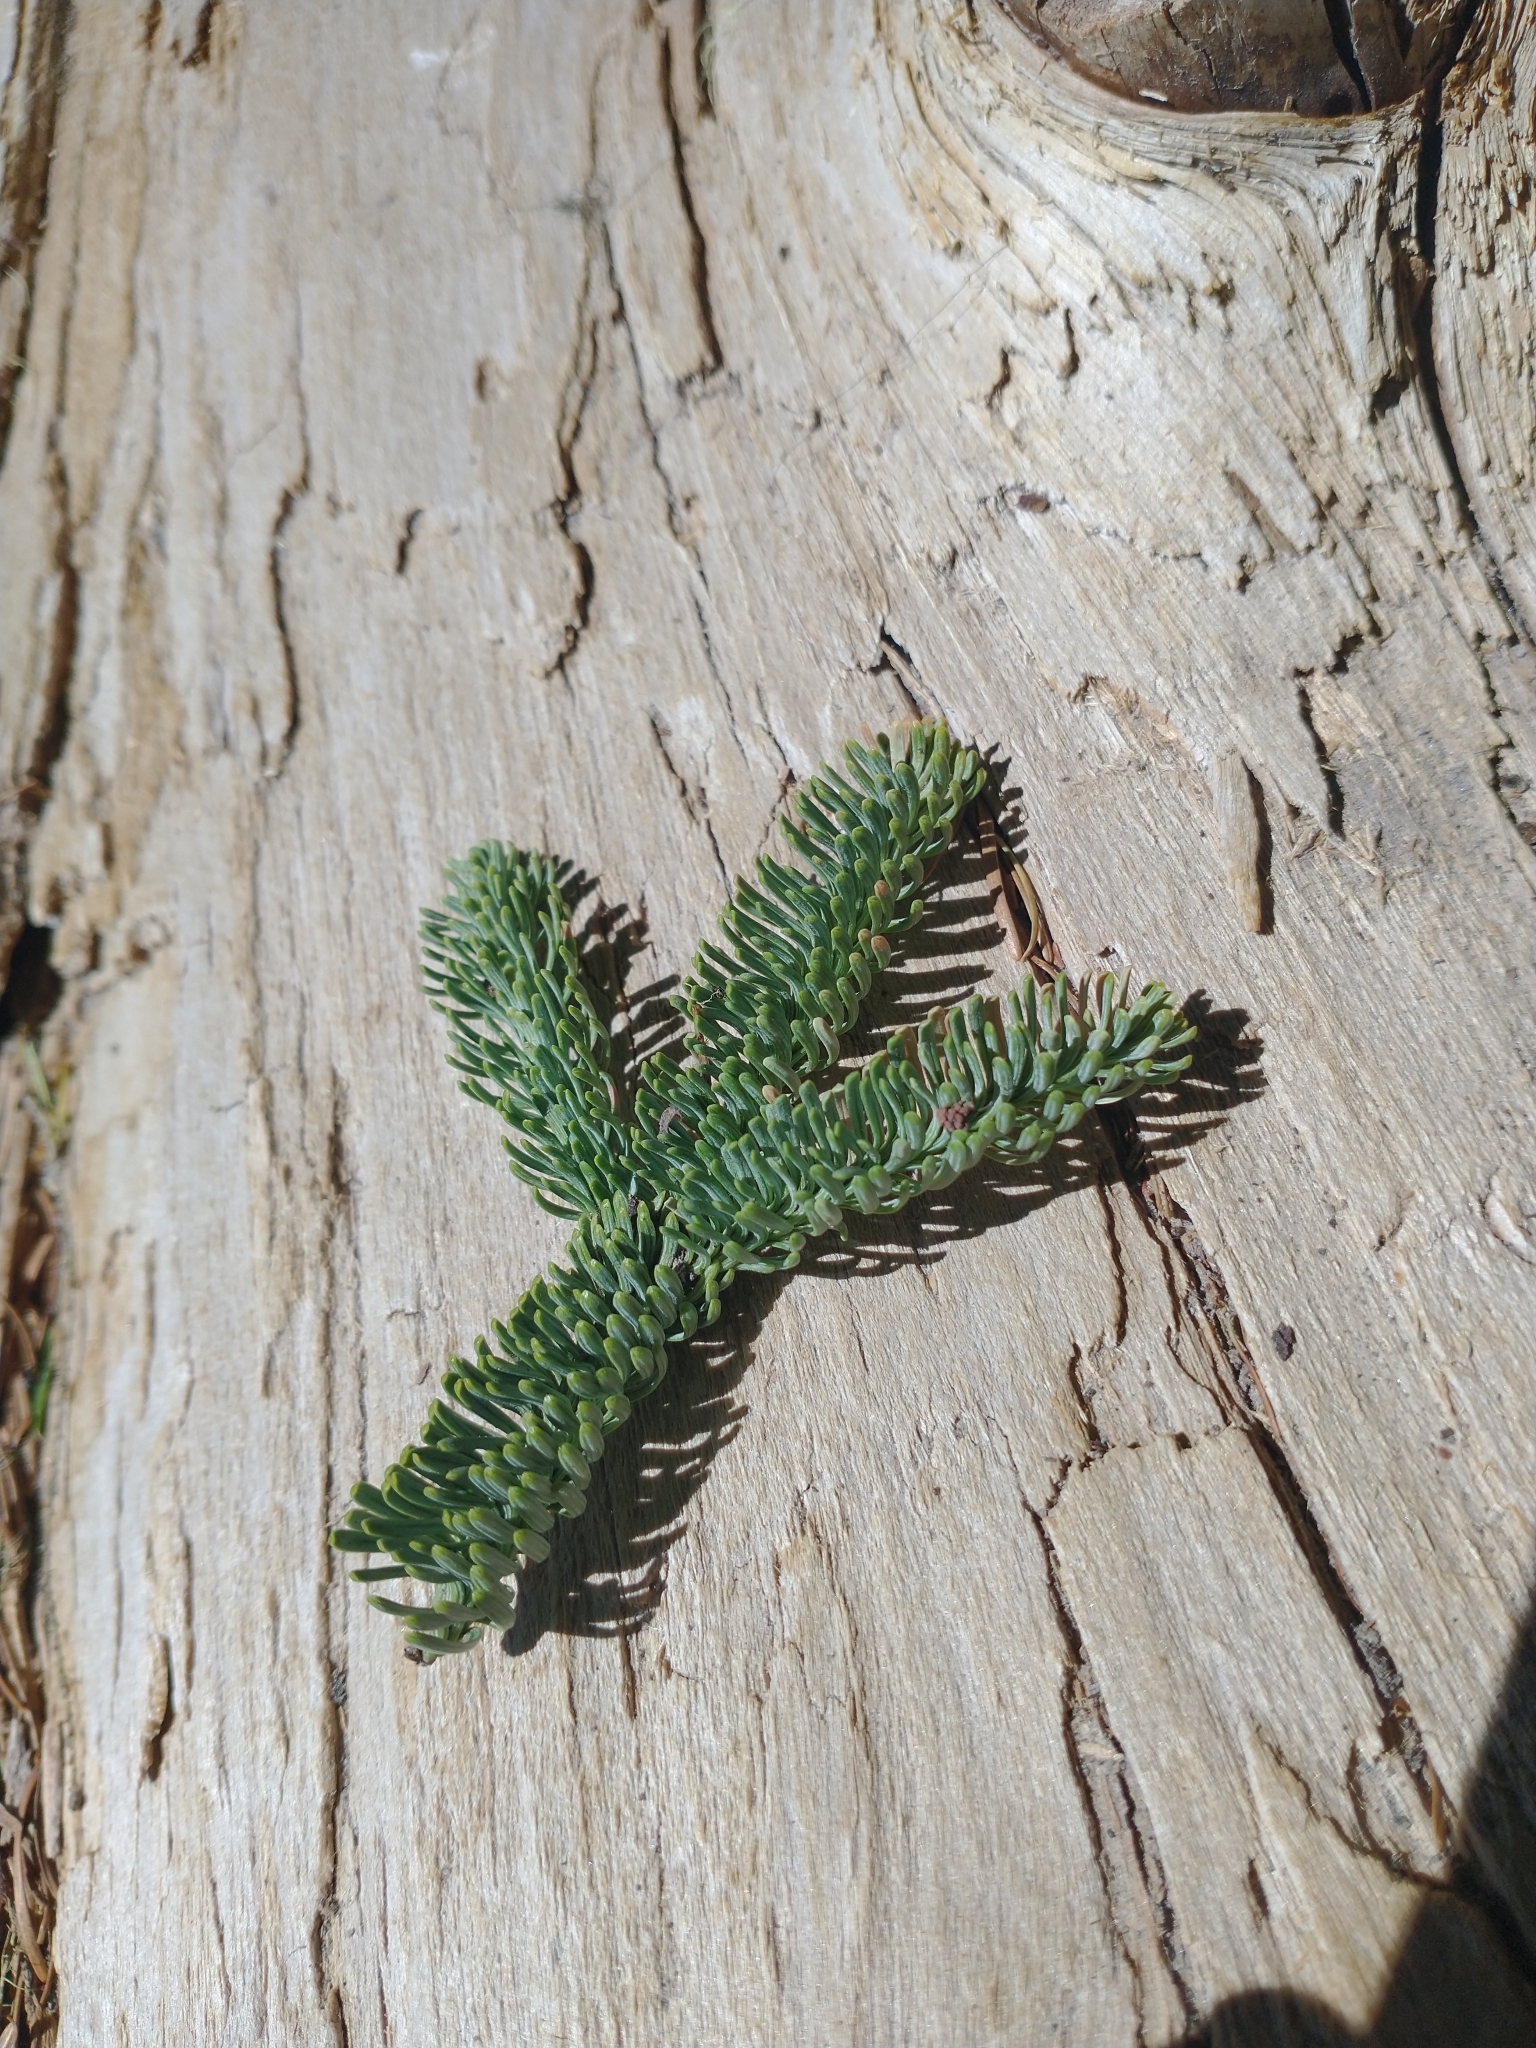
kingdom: Plantae
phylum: Tracheophyta
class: Pinopsida
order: Pinales
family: Pinaceae
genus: Abies
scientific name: Abies procera
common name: Noble fir
